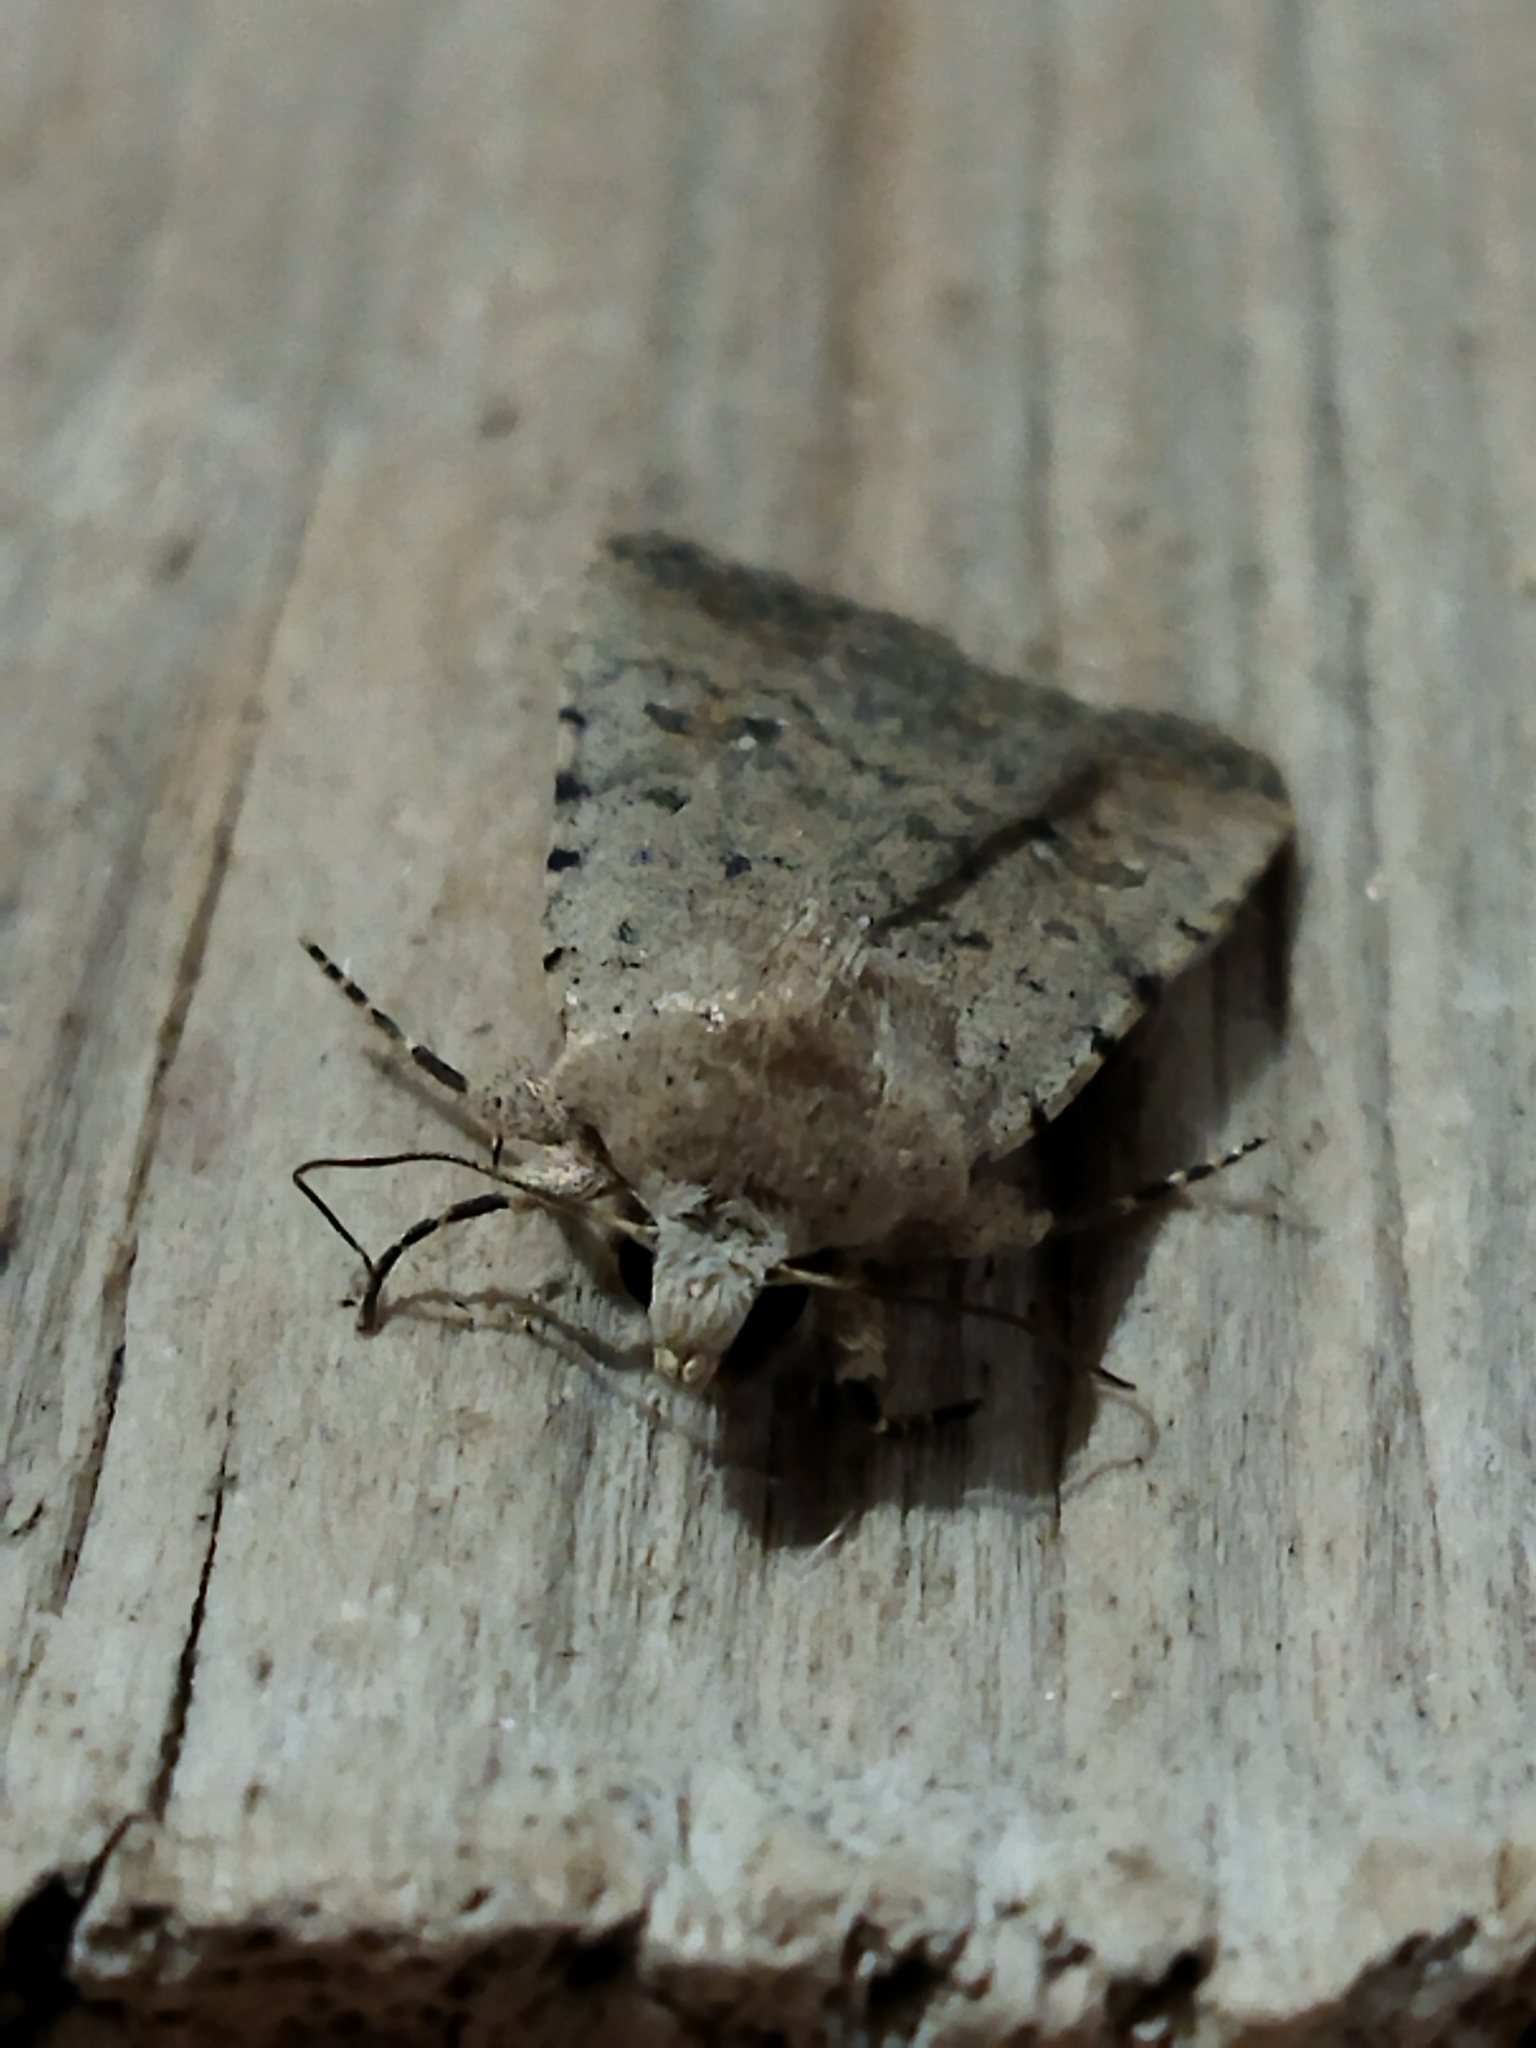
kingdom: Animalia
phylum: Arthropoda
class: Insecta
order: Lepidoptera
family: Noctuidae
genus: Caradrina
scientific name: Caradrina clavipalpis
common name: Pale mottled willow
